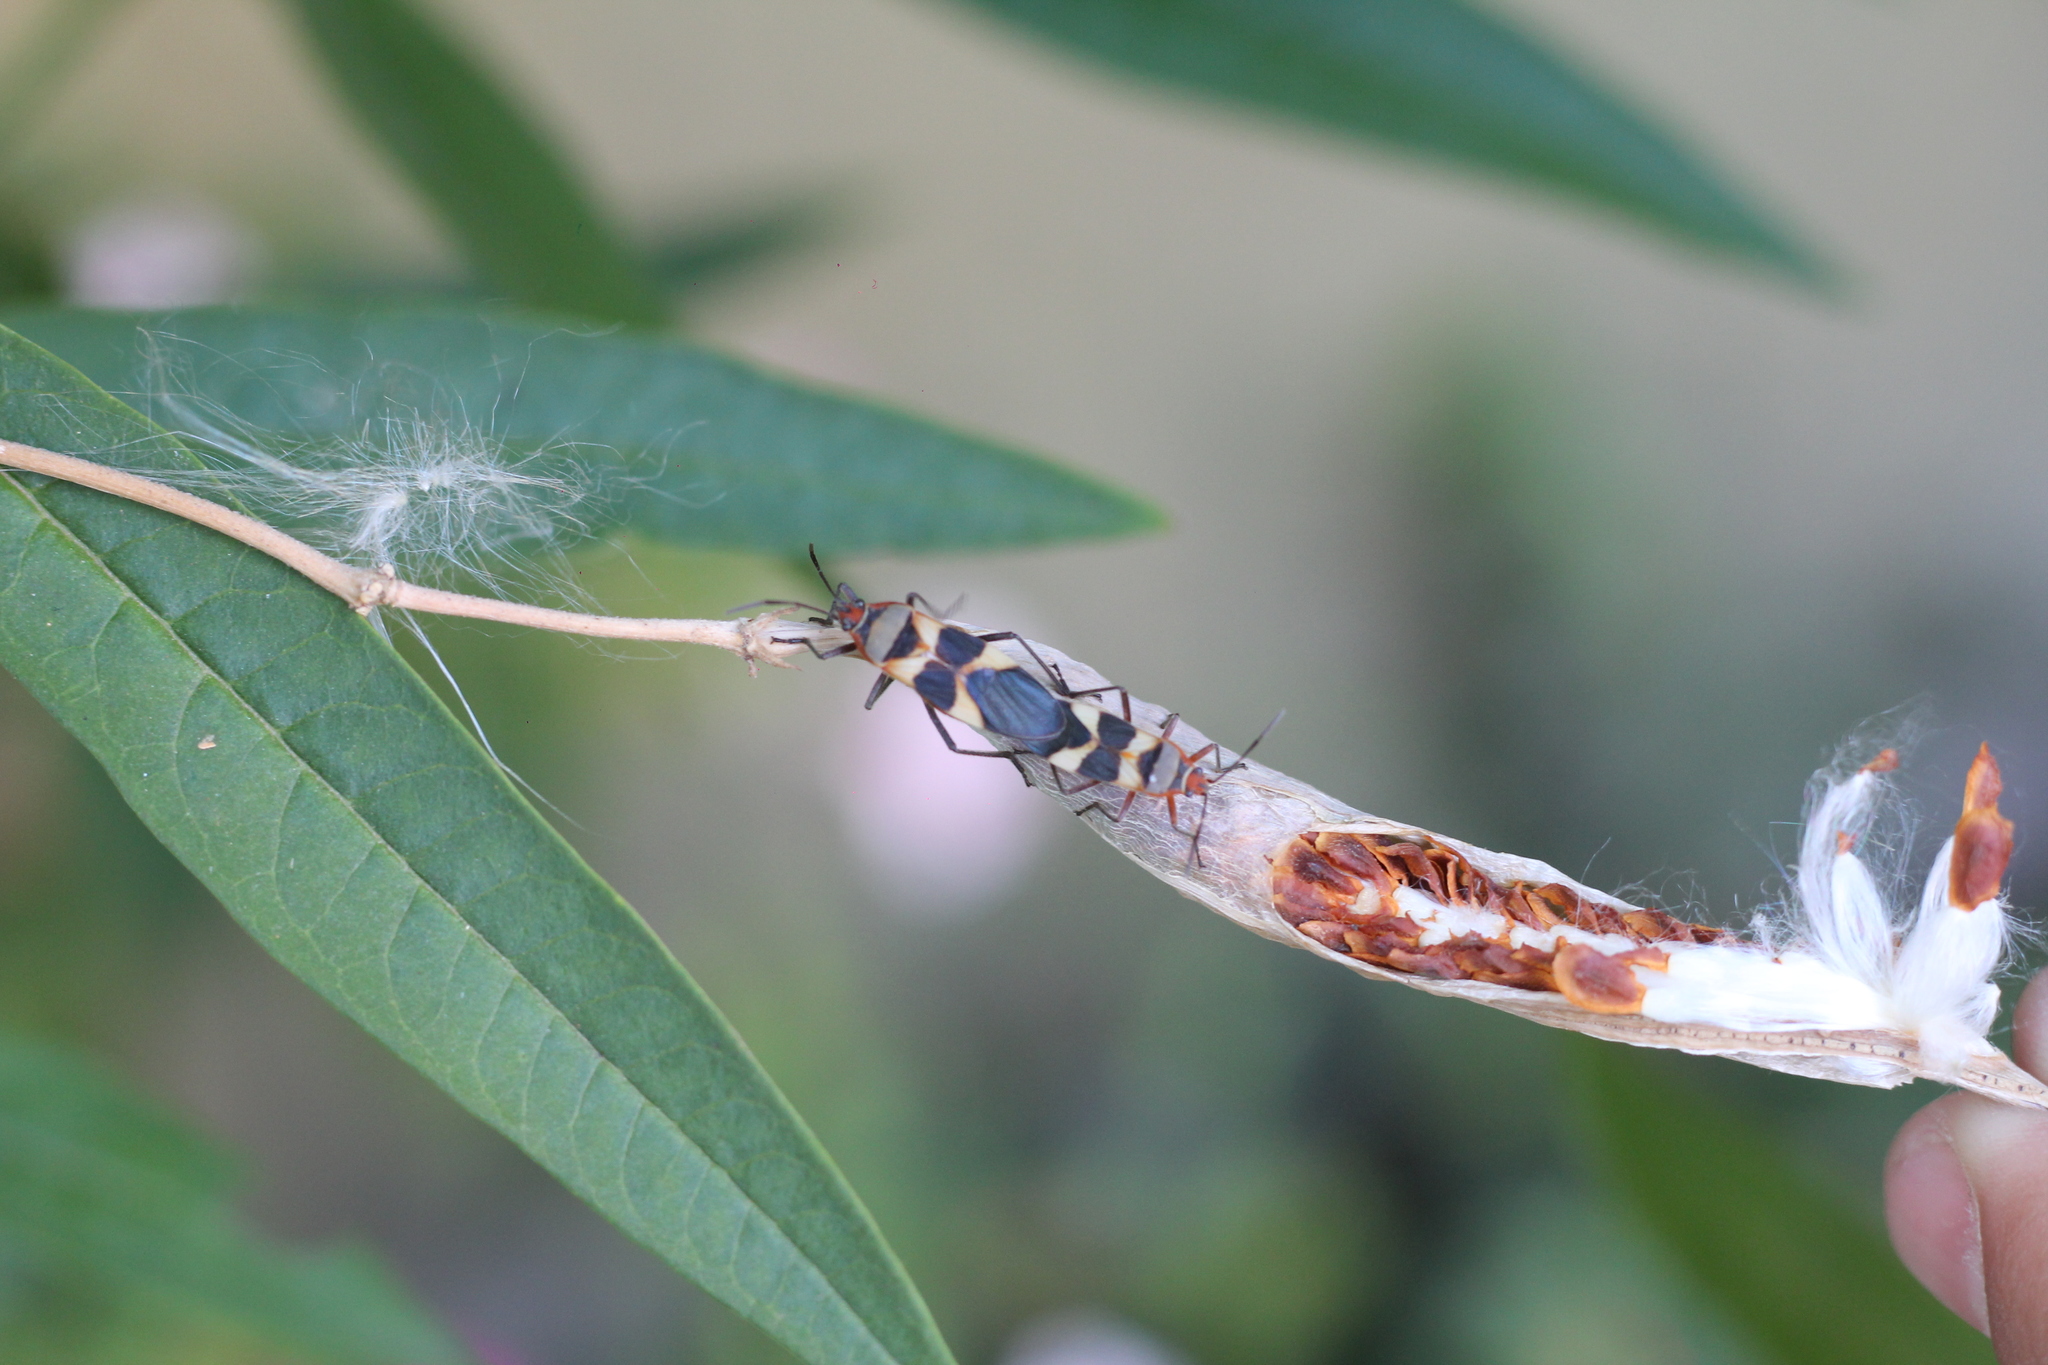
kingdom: Animalia
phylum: Arthropoda
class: Insecta
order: Hemiptera
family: Lygaeidae
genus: Oncopeltus
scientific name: Oncopeltus unifasciatellus
